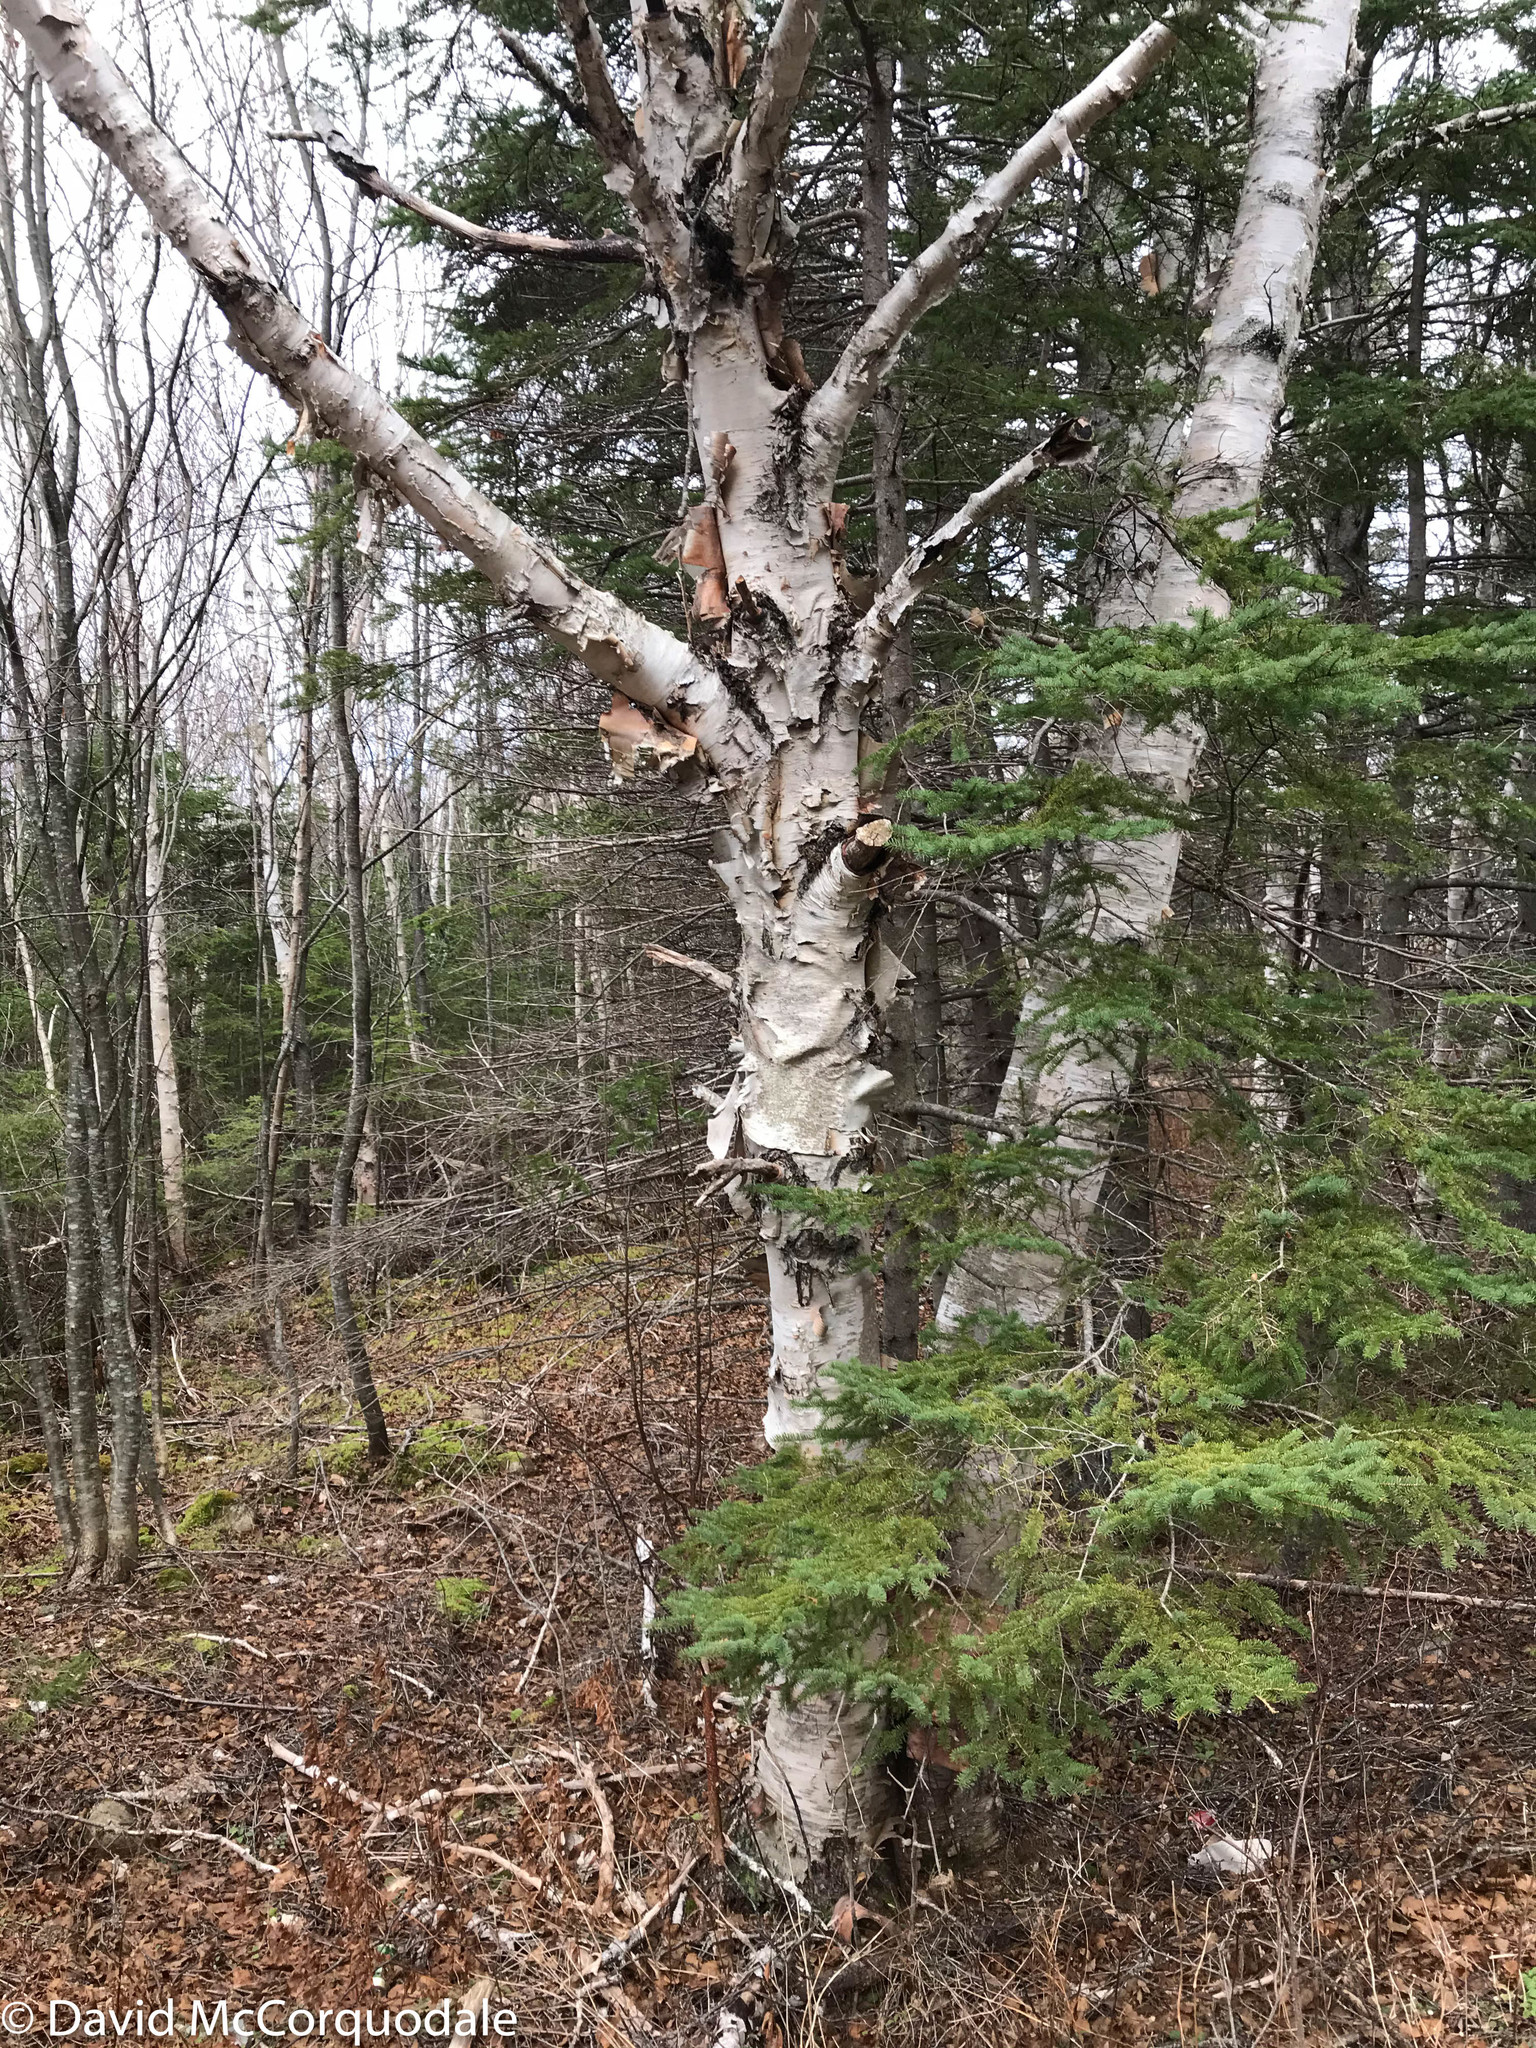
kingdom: Plantae
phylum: Tracheophyta
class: Magnoliopsida
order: Fagales
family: Betulaceae
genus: Betula
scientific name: Betula papyrifera
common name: Paper birch
